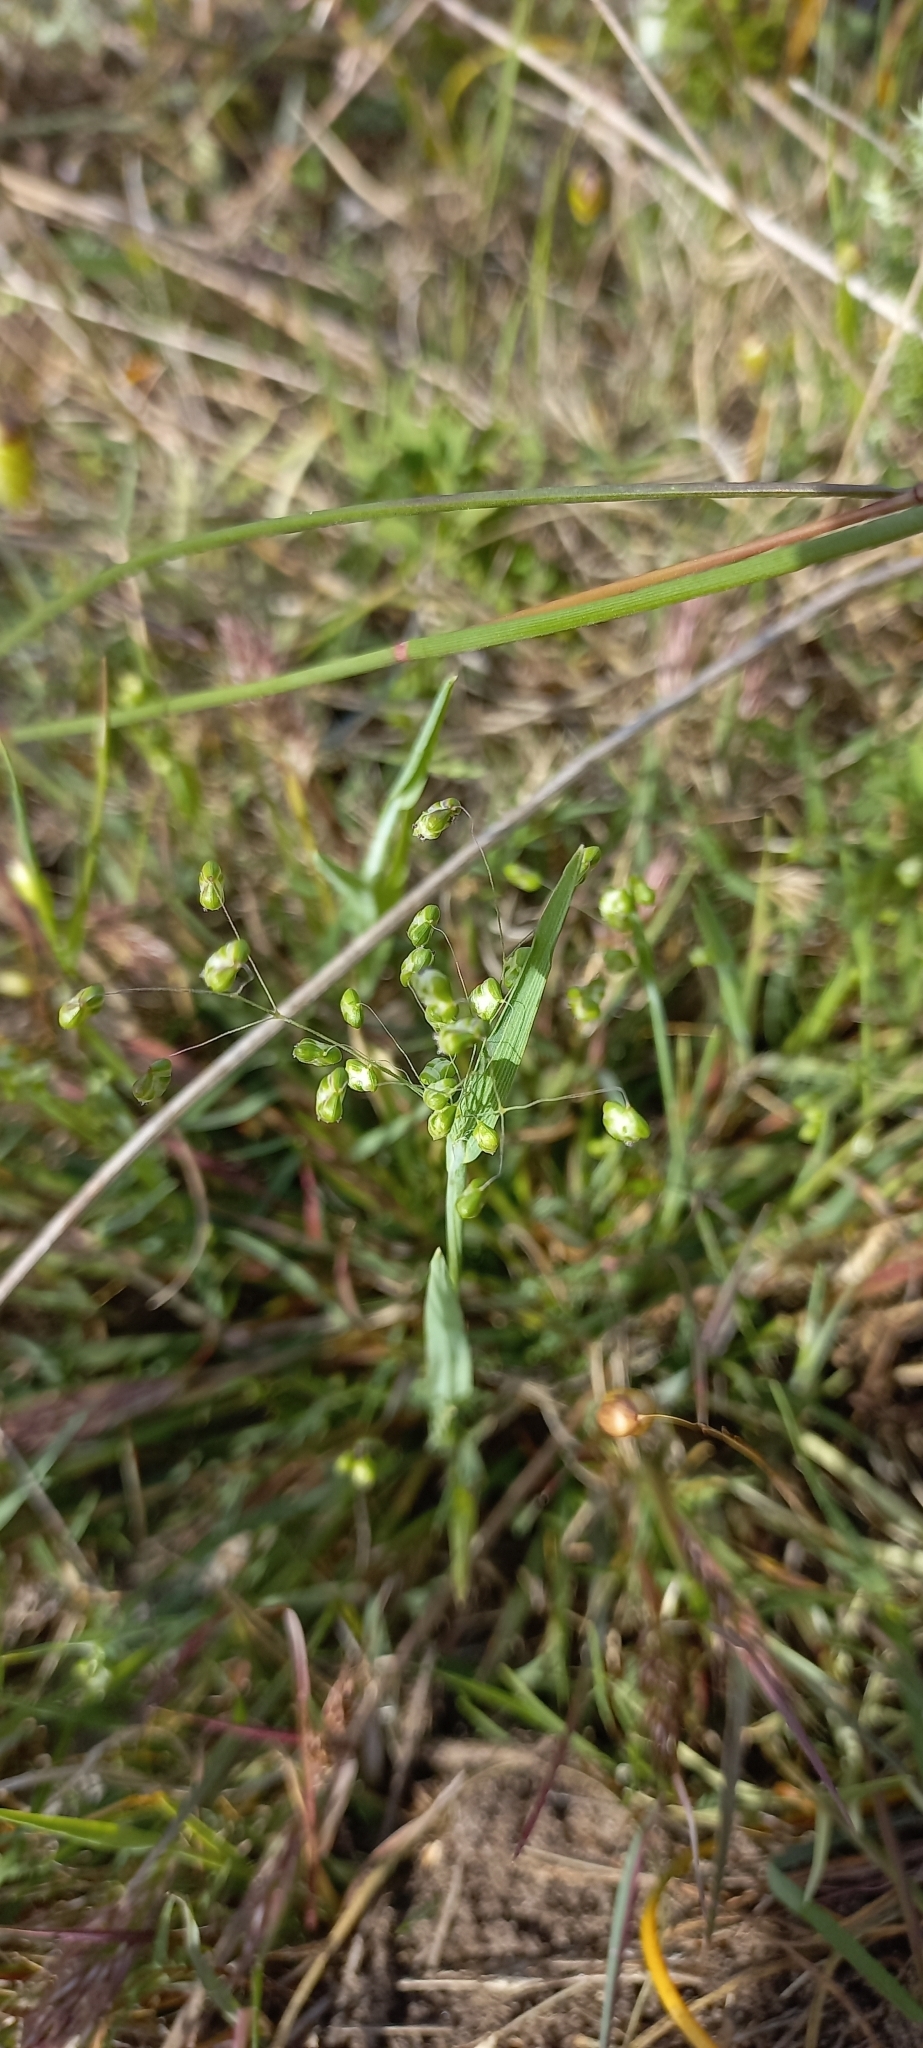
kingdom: Plantae
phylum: Tracheophyta
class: Liliopsida
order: Poales
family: Poaceae
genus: Briza
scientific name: Briza minor
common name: Lesser quaking-grass
